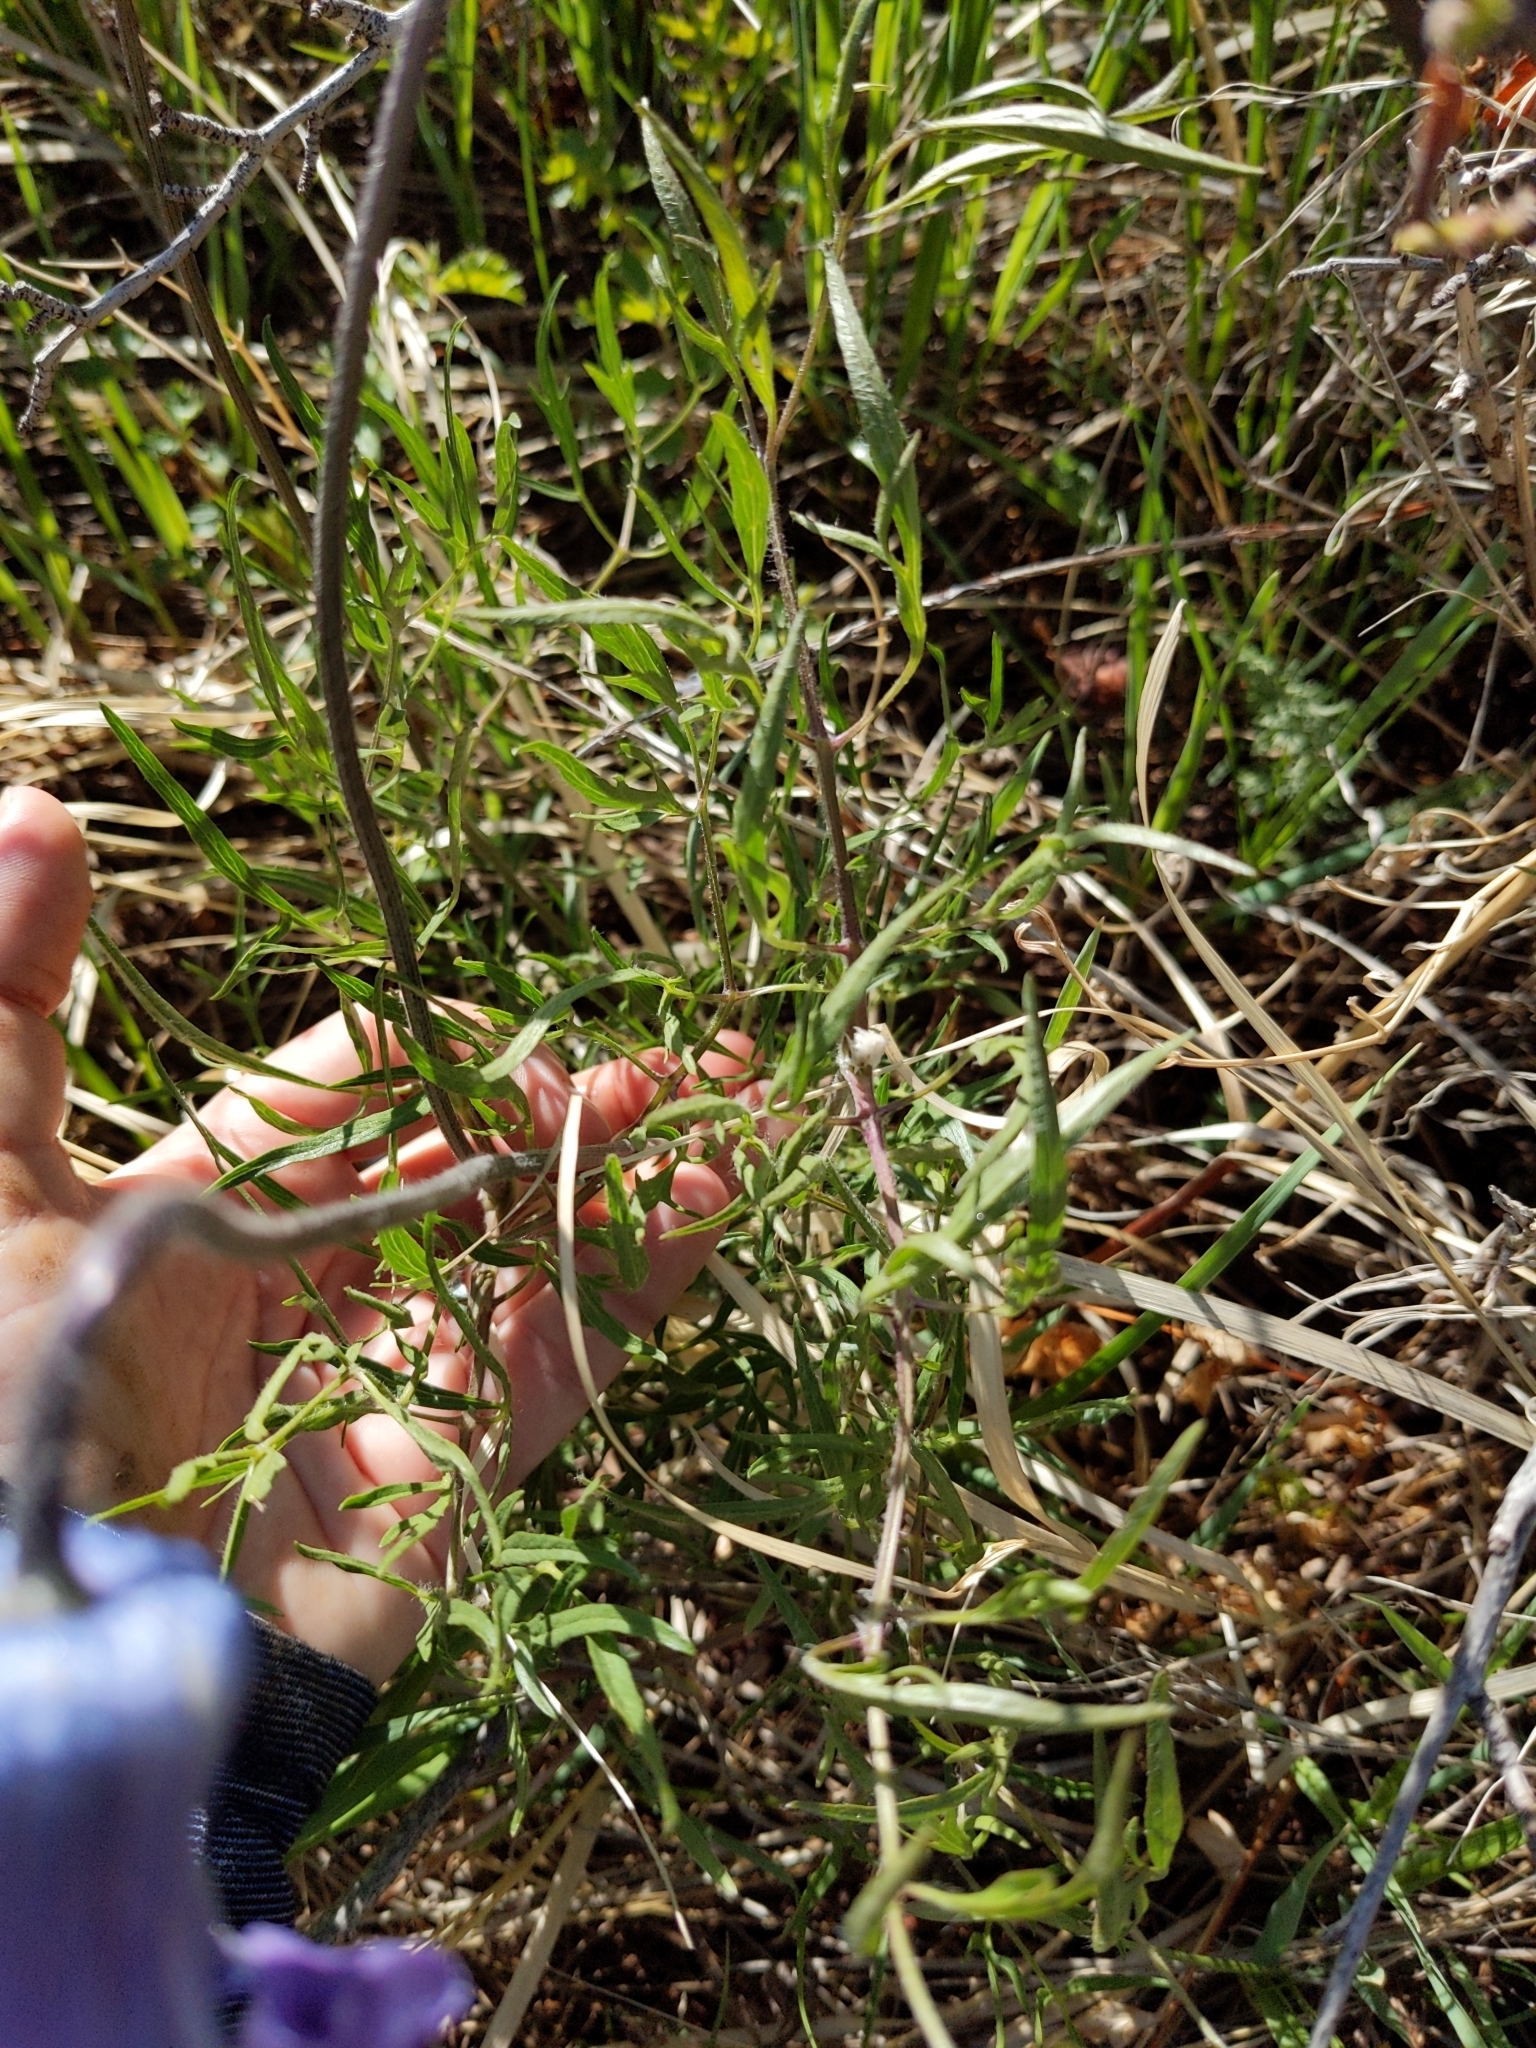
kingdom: Plantae
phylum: Tracheophyta
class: Magnoliopsida
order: Ranunculales
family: Ranunculaceae
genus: Clematis
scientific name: Clematis hirsutissima
